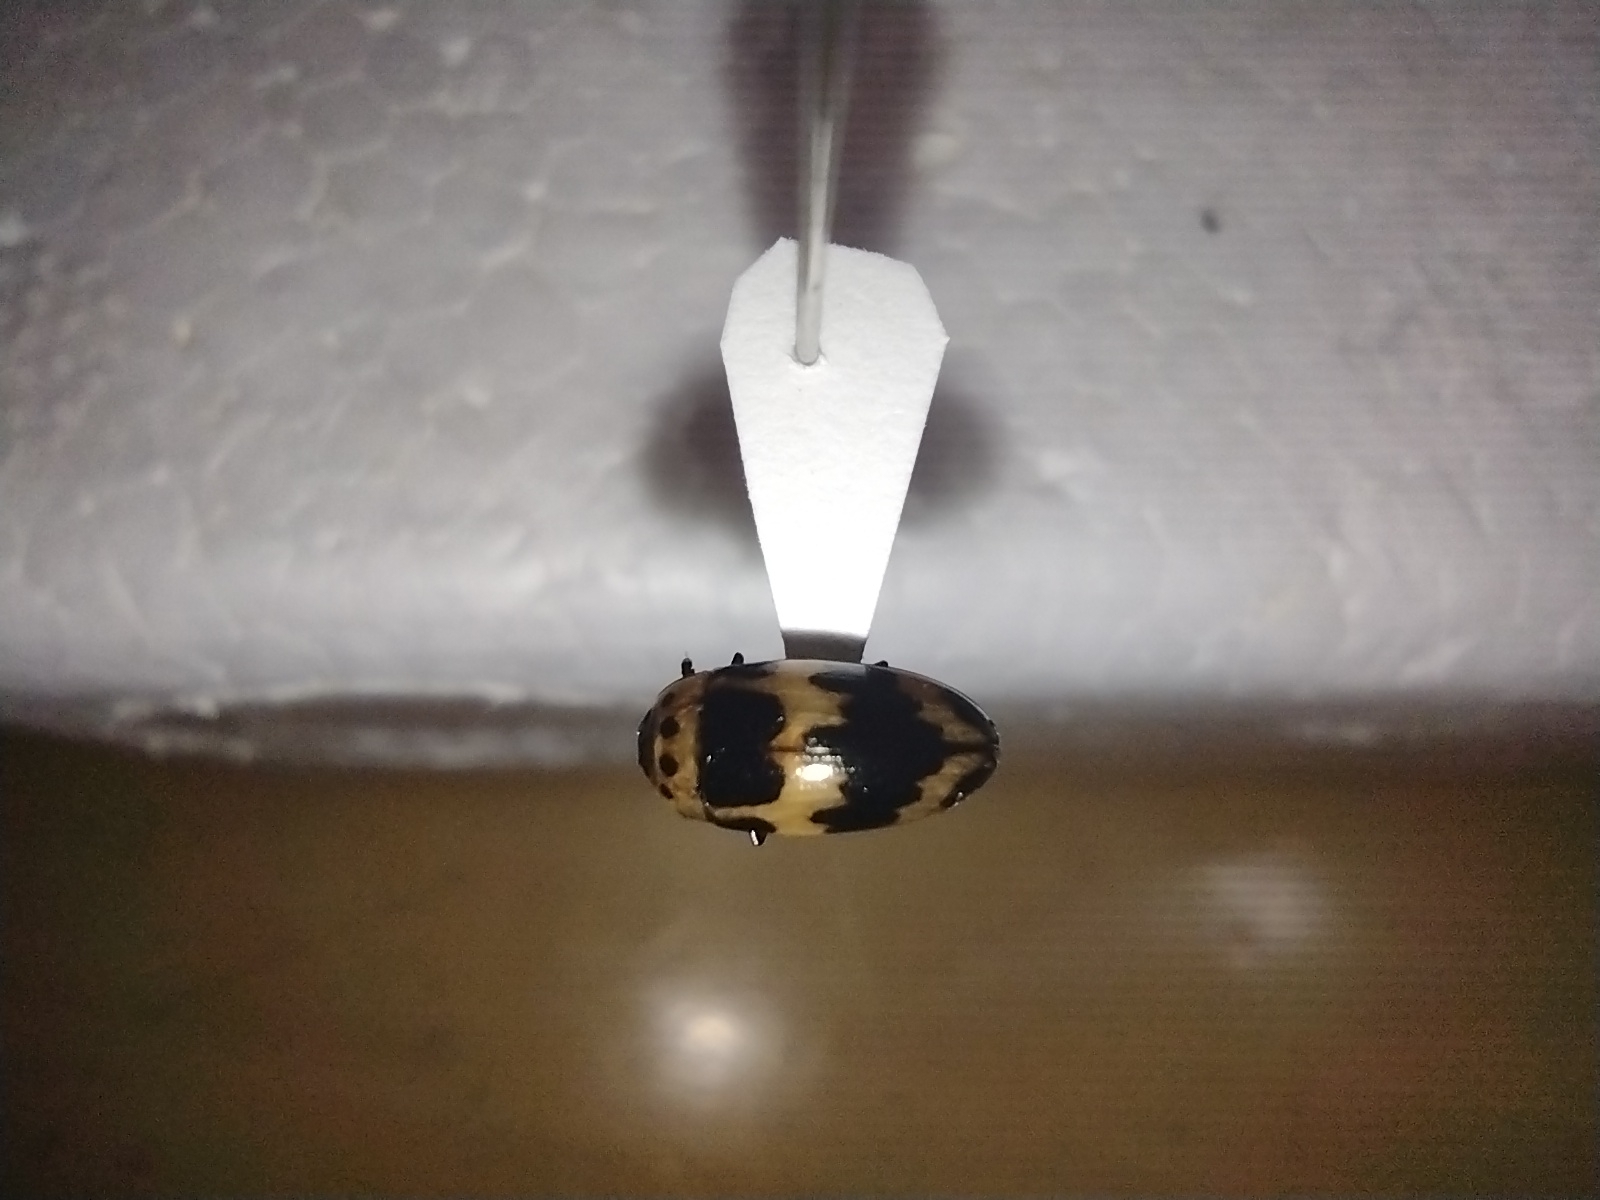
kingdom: Animalia
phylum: Arthropoda
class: Insecta
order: Coleoptera
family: Erotylidae
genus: Ischyrus
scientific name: Ischyrus quadripunctatus
